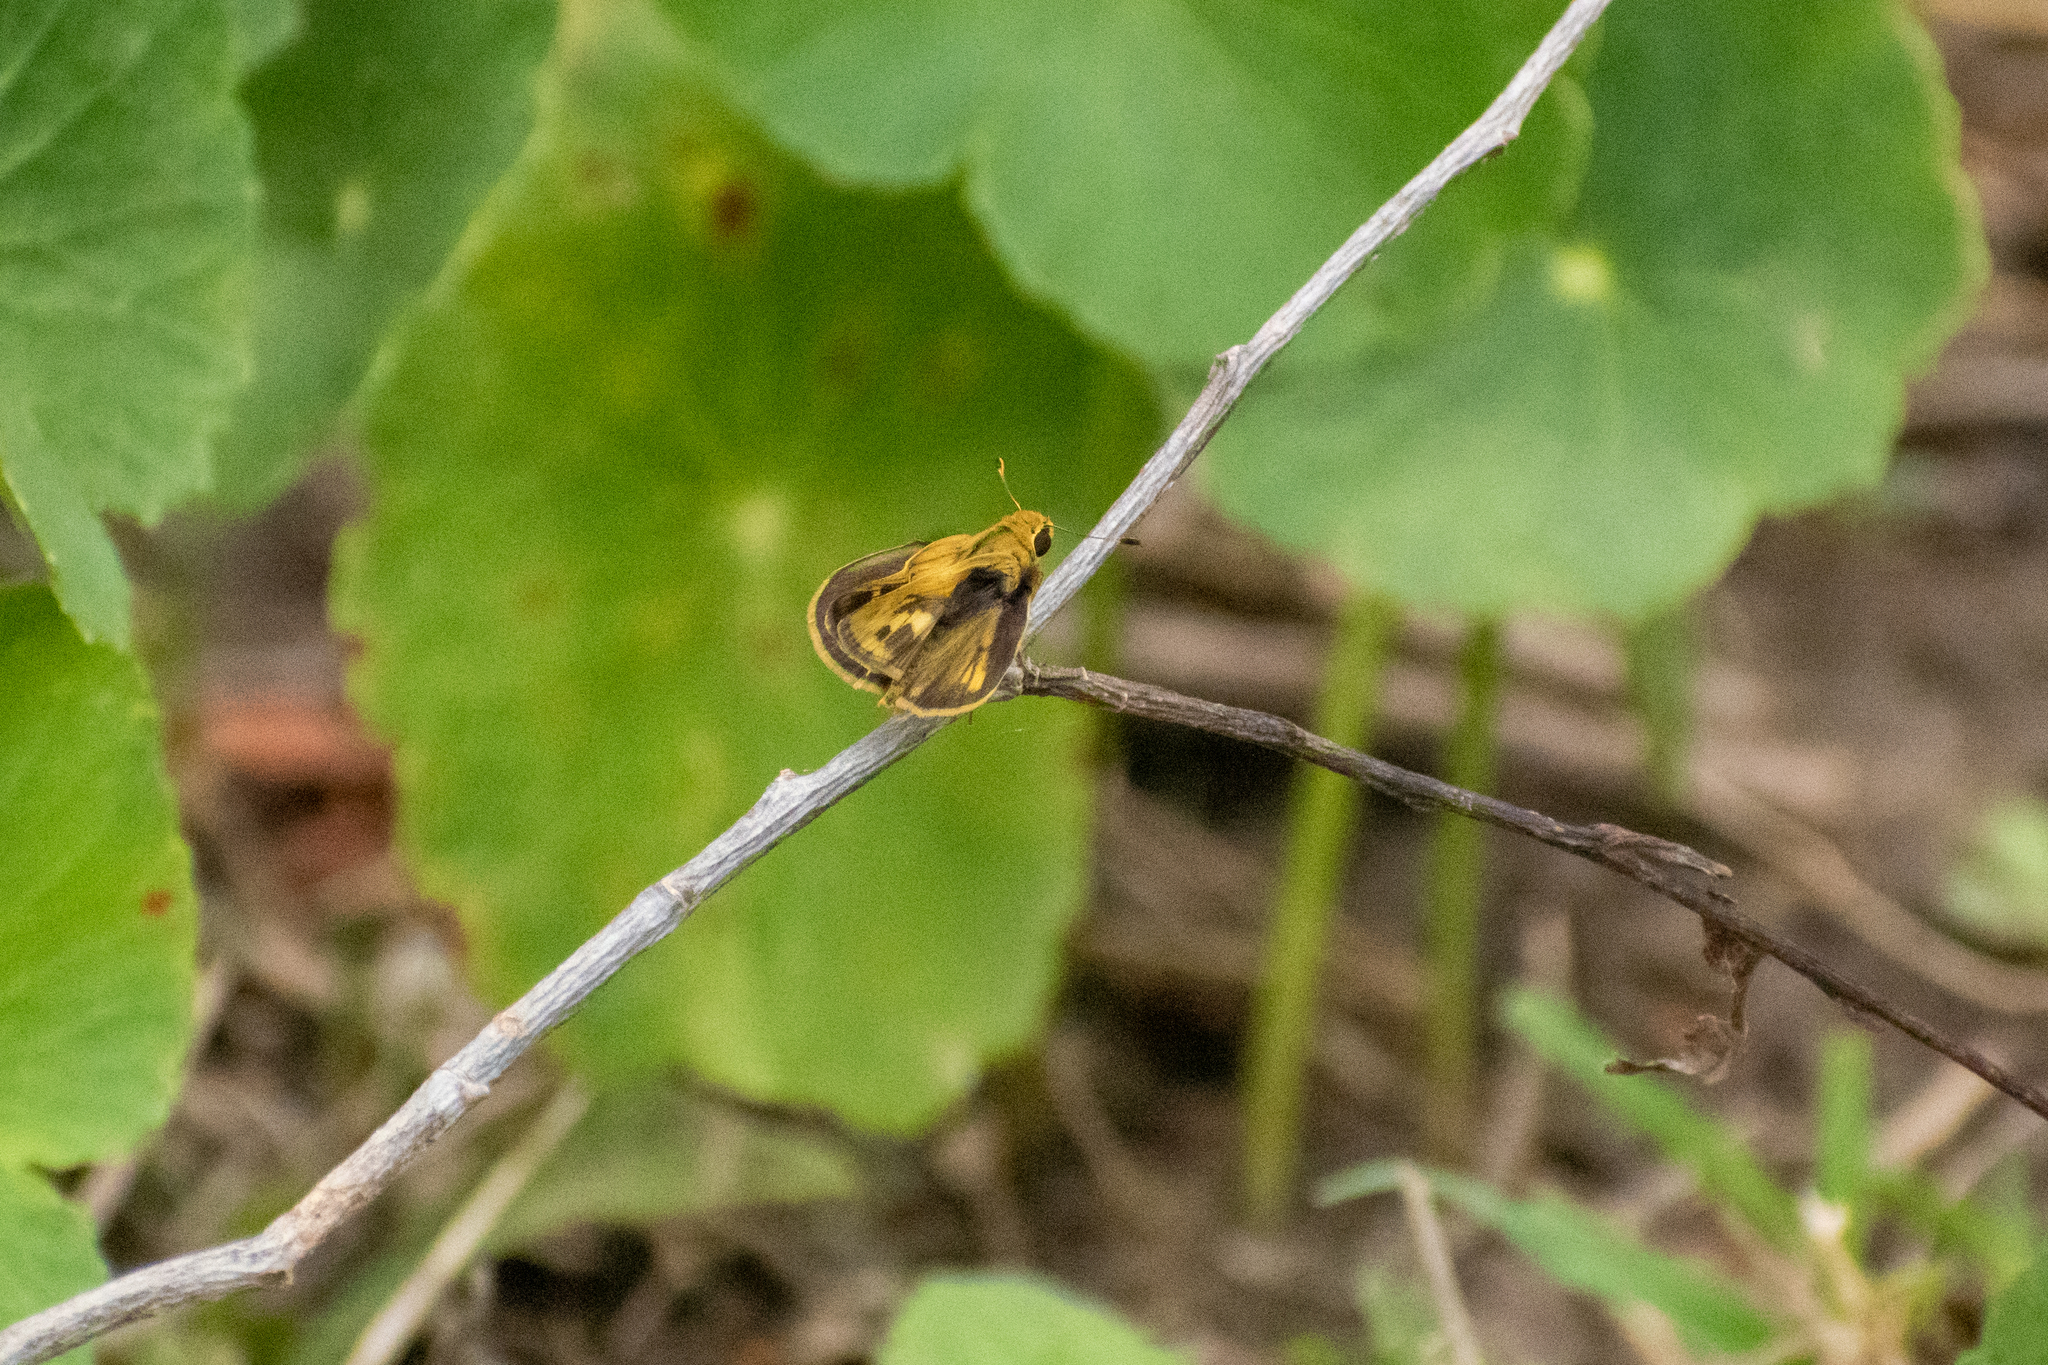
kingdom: Animalia
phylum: Arthropoda
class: Insecta
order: Lepidoptera
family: Hesperiidae
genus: Polites
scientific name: Polites vibex
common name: Whirlabout
